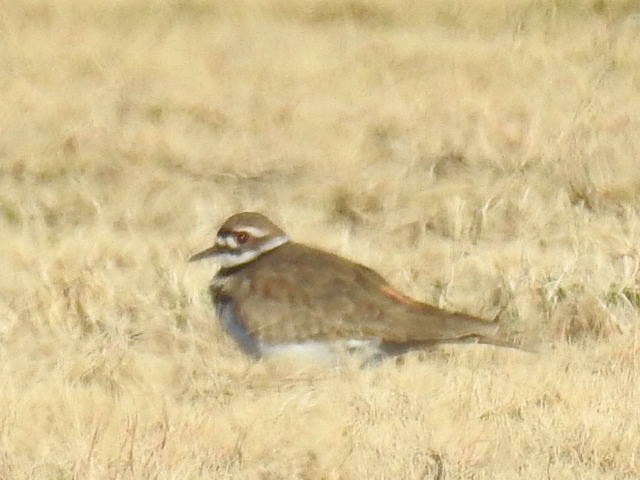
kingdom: Animalia
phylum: Chordata
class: Aves
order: Charadriiformes
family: Charadriidae
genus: Charadrius
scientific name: Charadrius vociferus
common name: Killdeer
